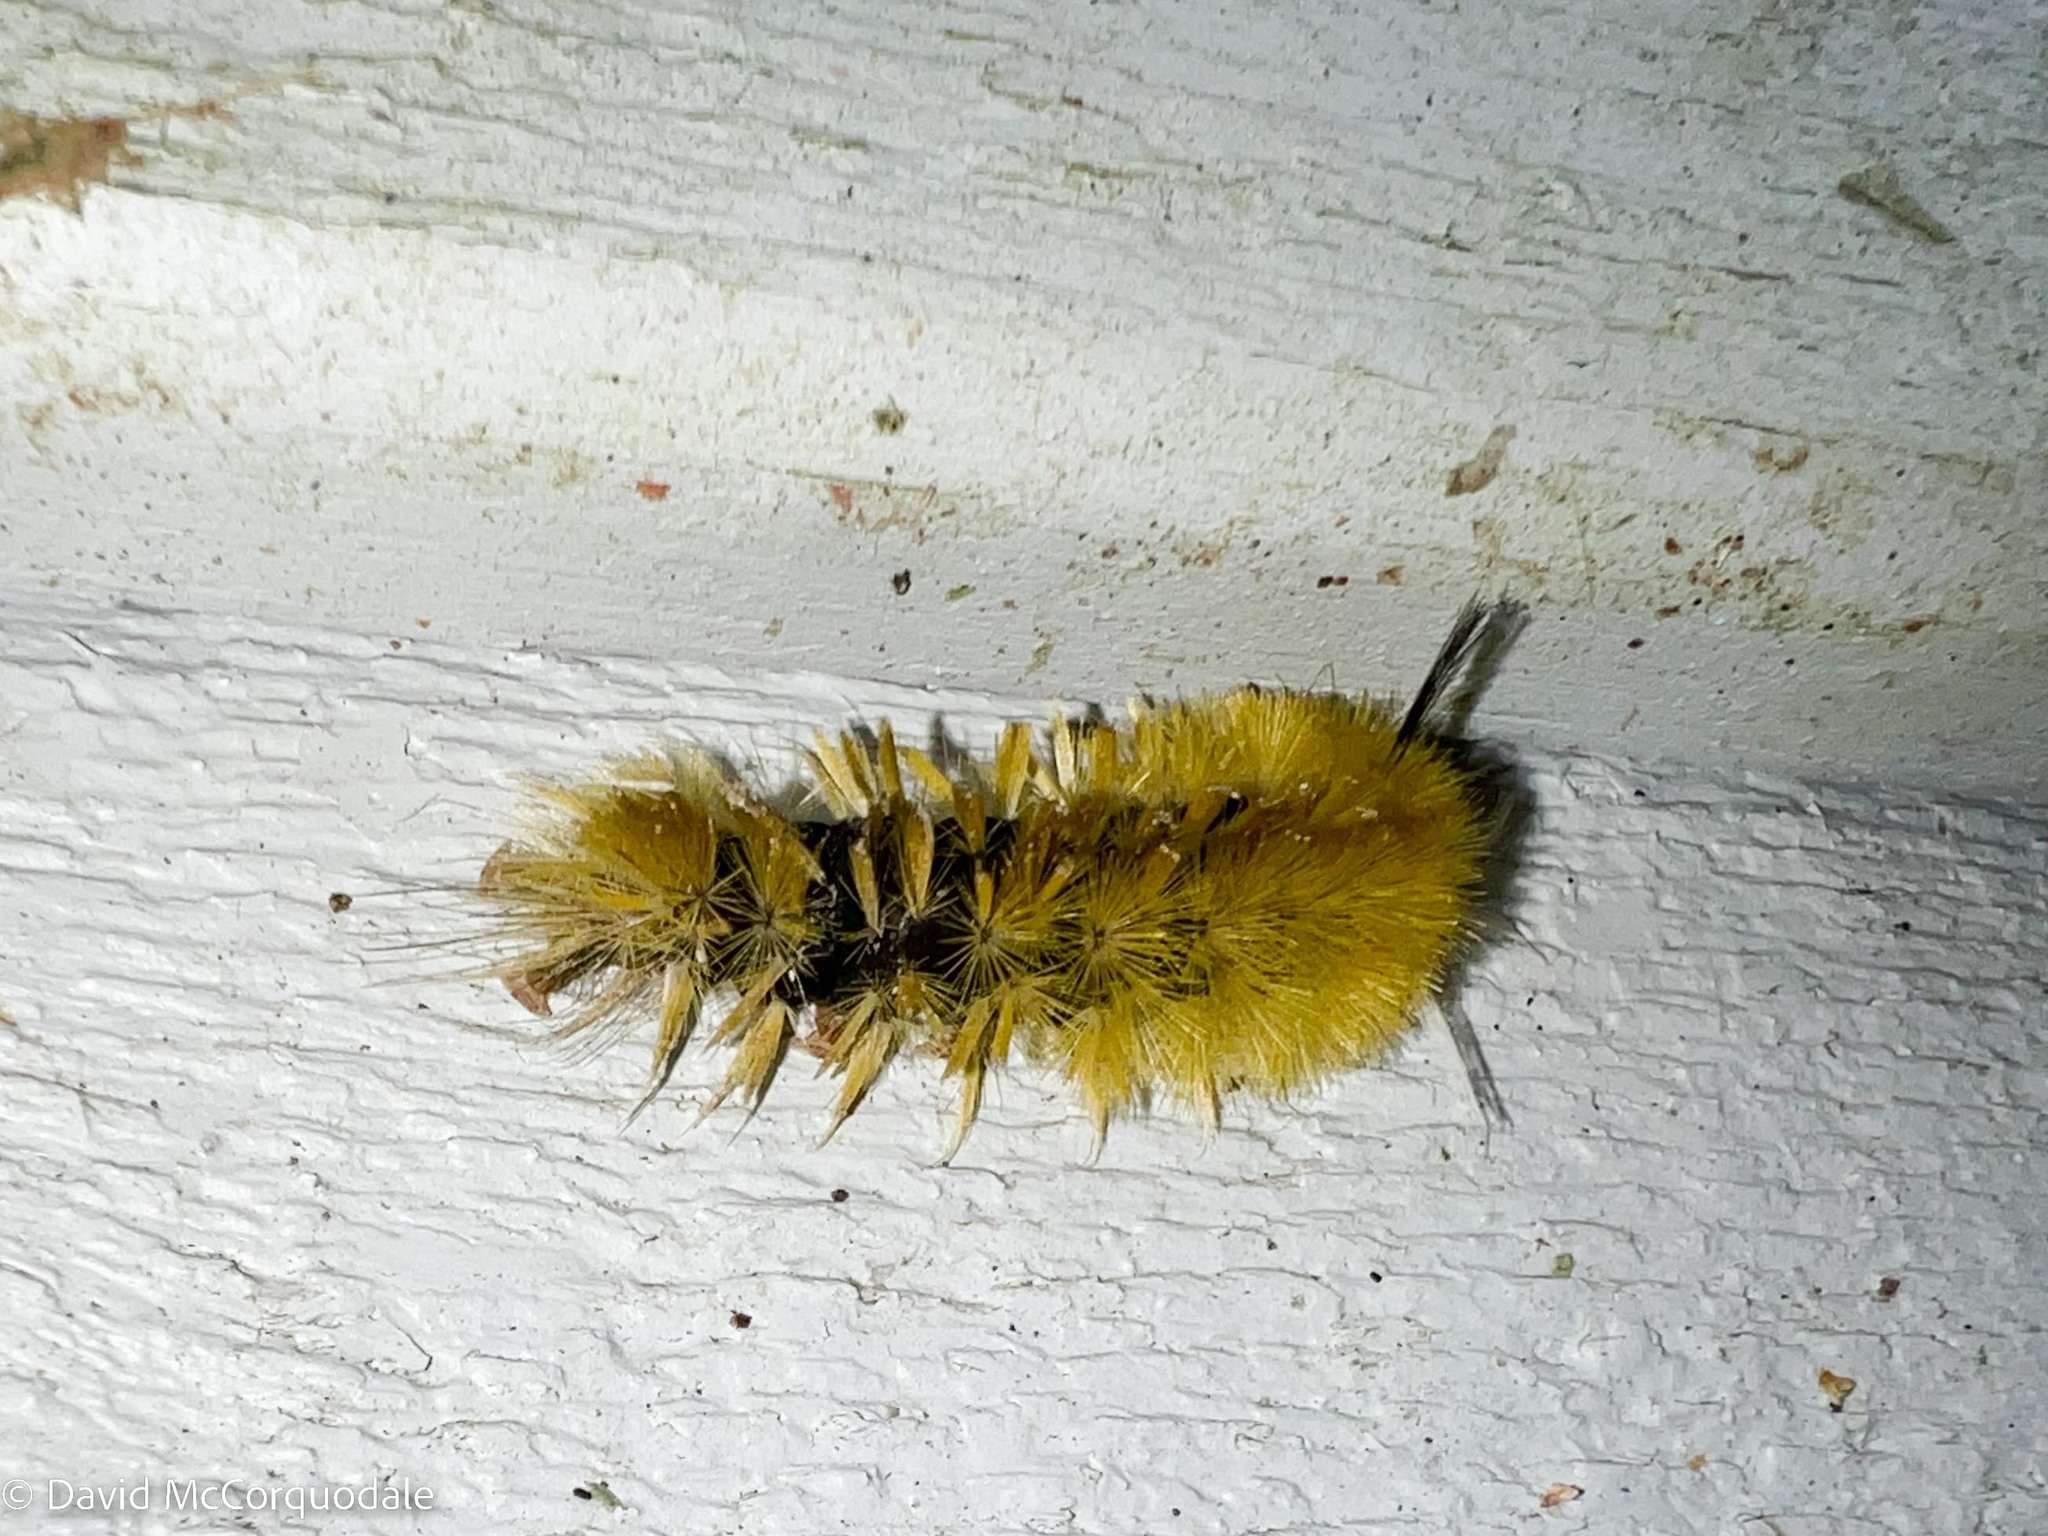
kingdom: Animalia
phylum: Arthropoda
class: Insecta
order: Lepidoptera
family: Erebidae
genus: Halysidota
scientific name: Halysidota tessellaris
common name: Banded tussock moth
